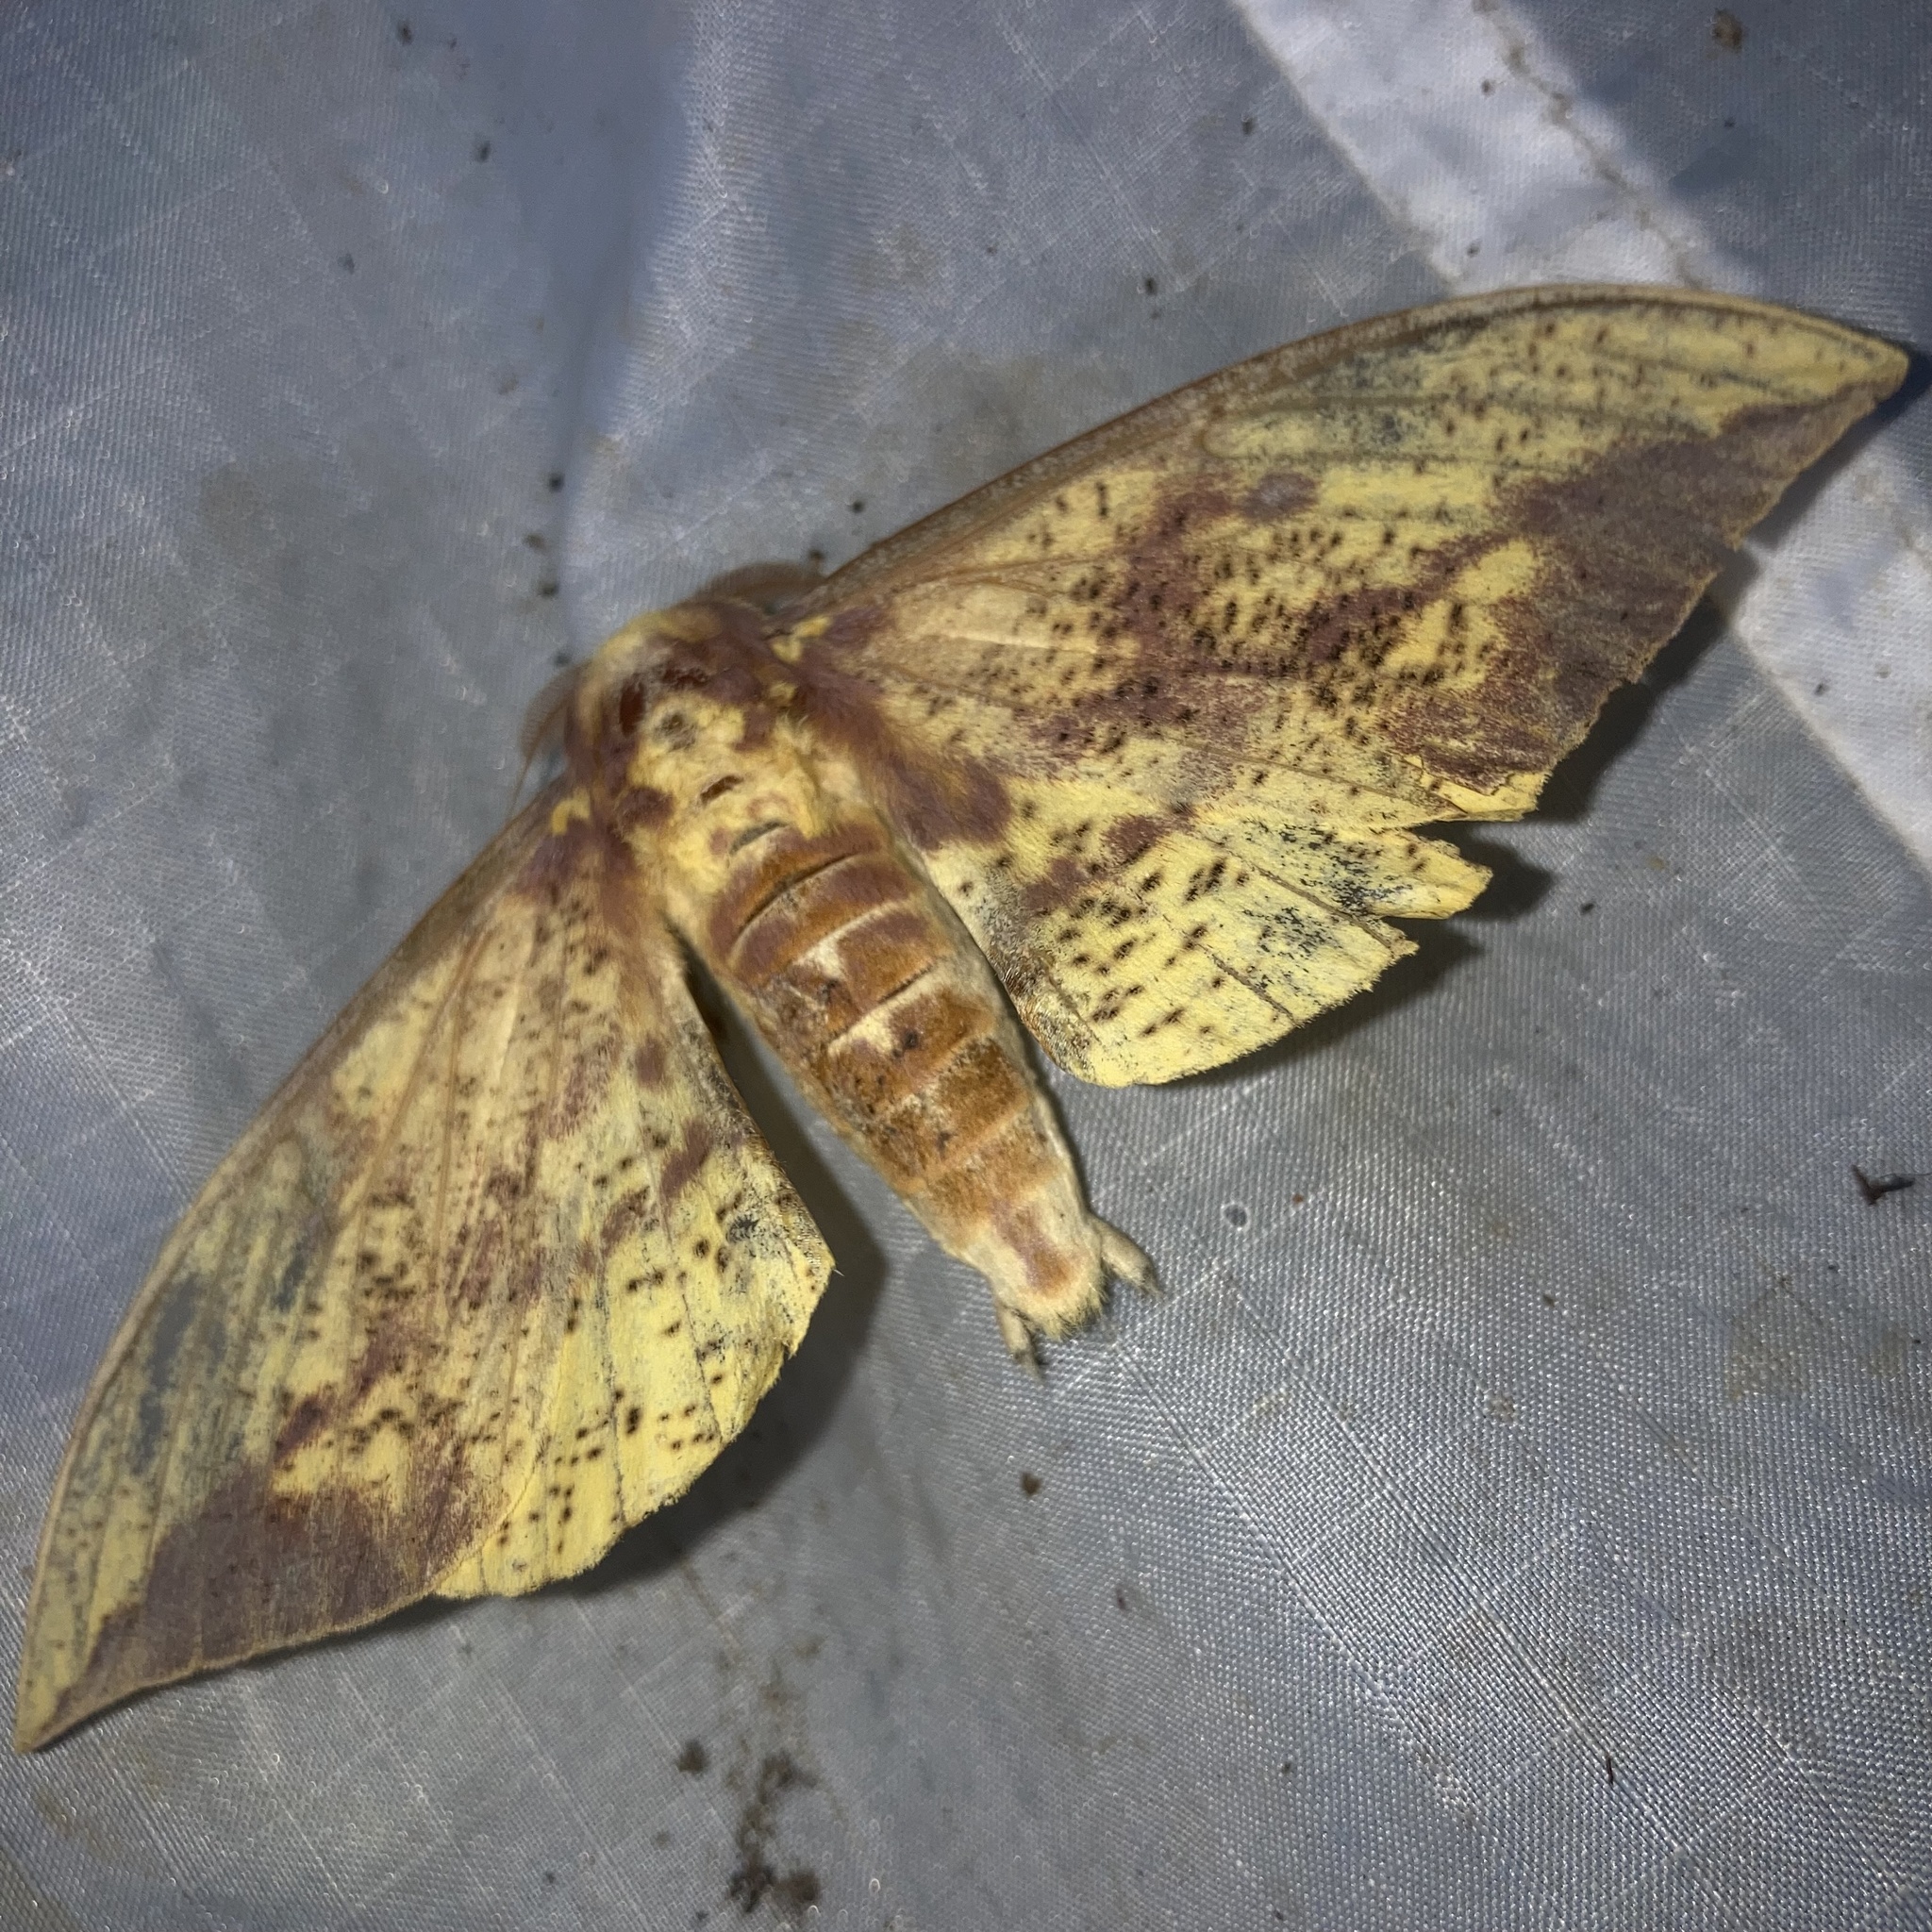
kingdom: Animalia
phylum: Arthropoda
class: Insecta
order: Lepidoptera
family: Saturniidae
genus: Eacles
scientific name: Eacles imperialis
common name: Imperial moth
